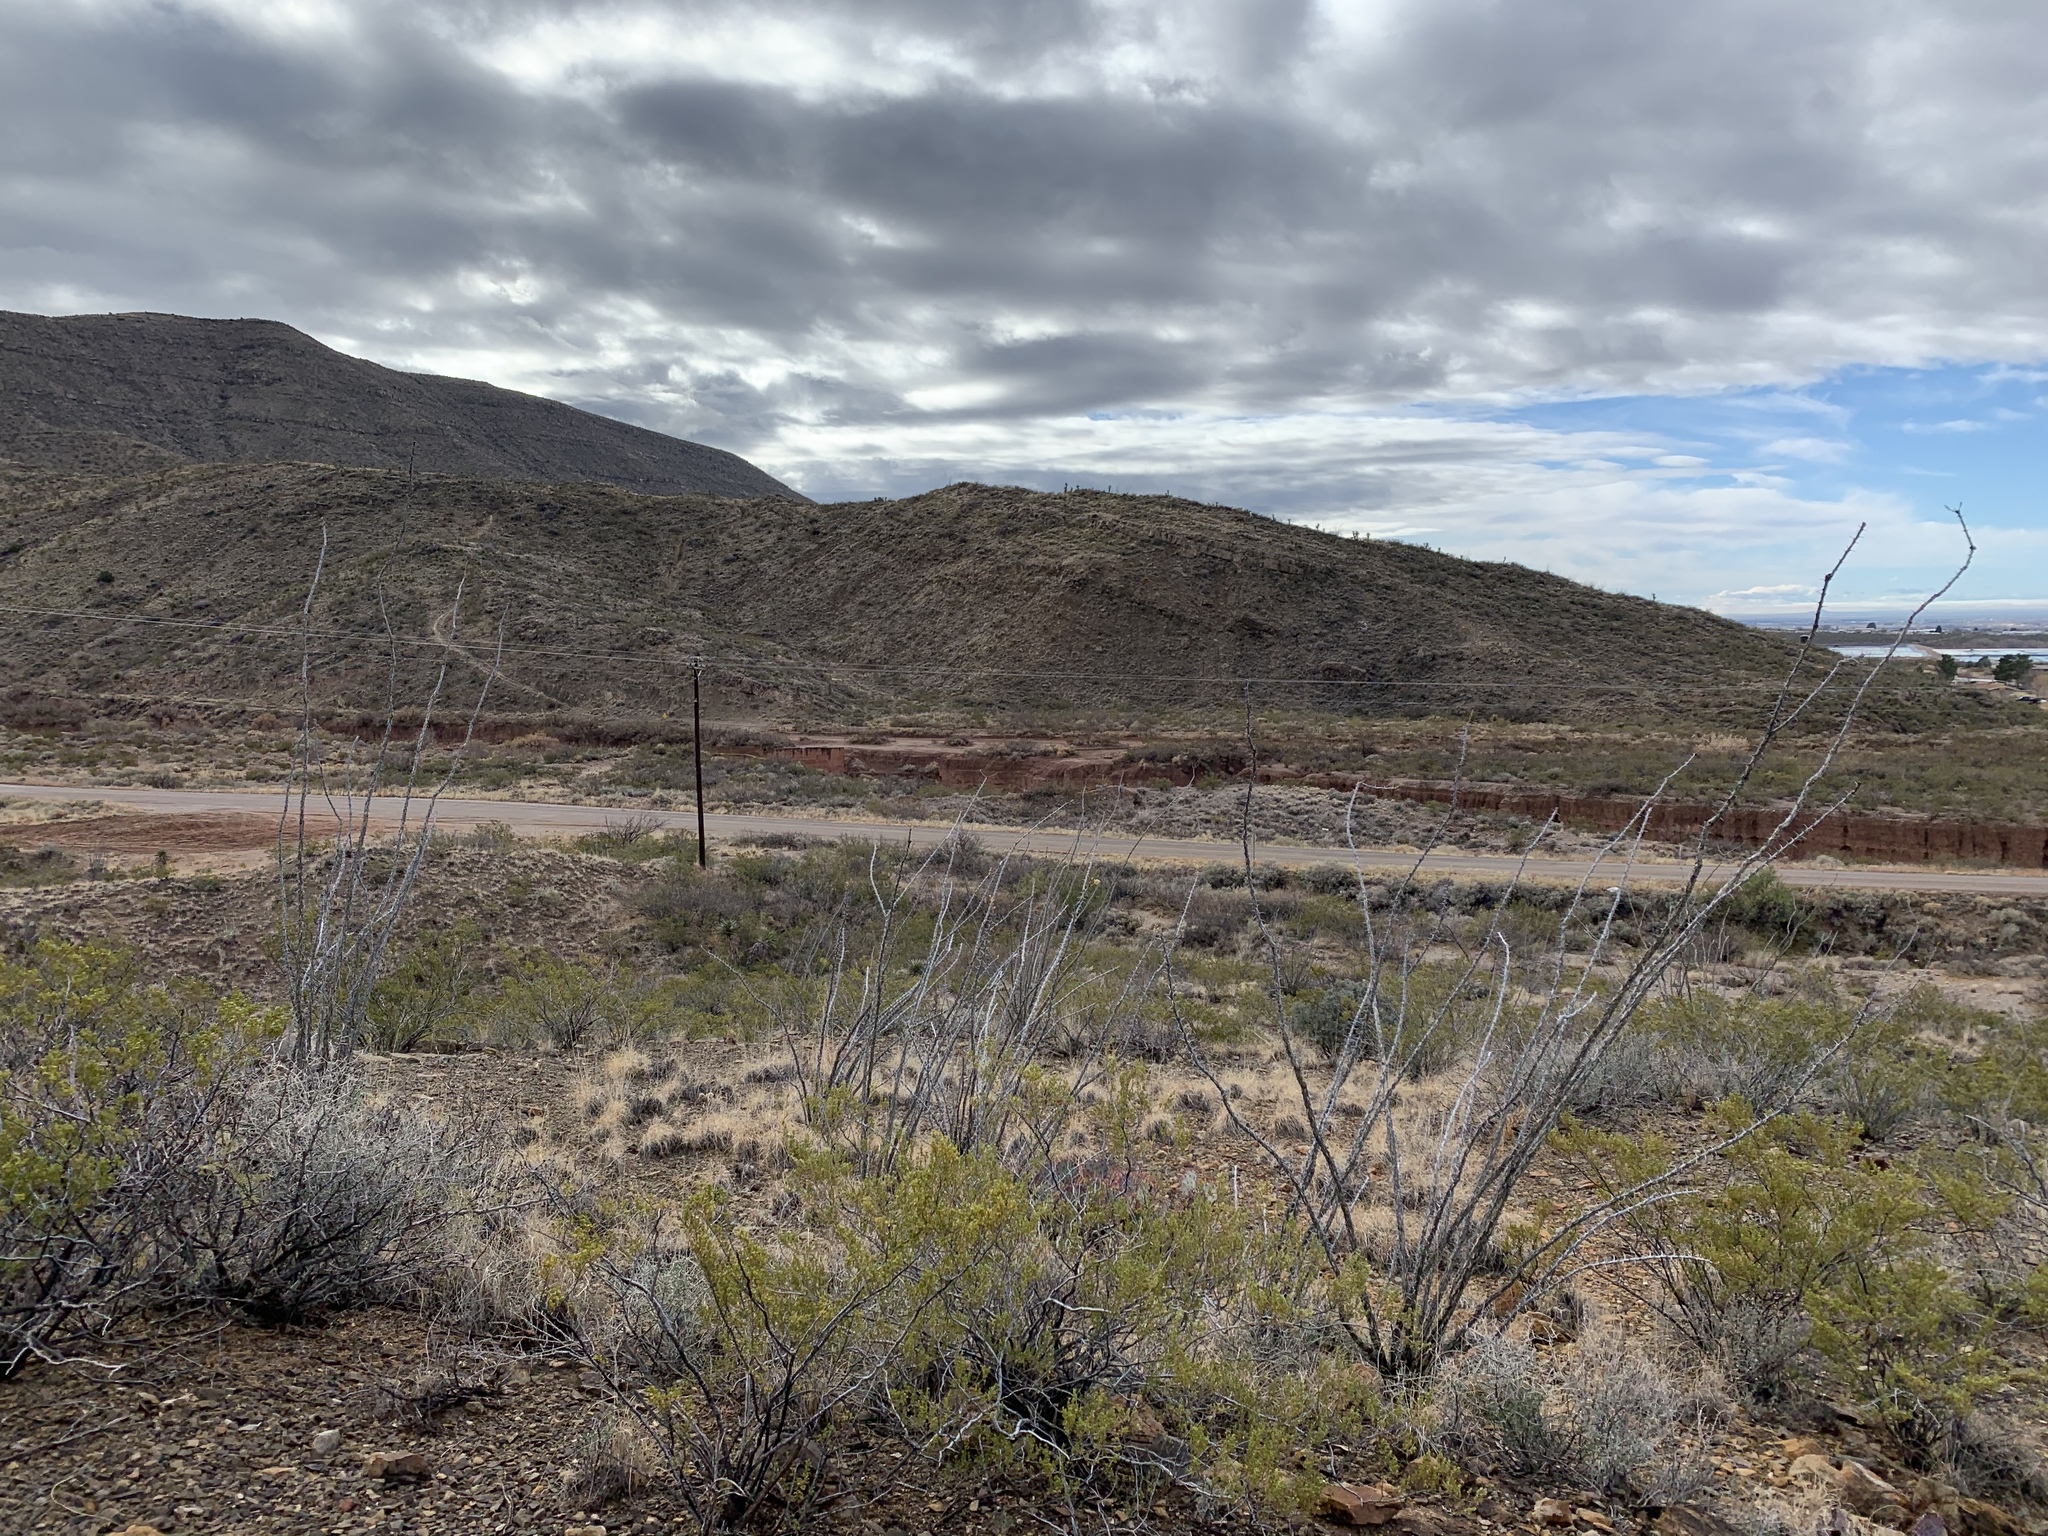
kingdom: Plantae
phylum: Tracheophyta
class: Magnoliopsida
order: Ericales
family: Fouquieriaceae
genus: Fouquieria
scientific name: Fouquieria splendens
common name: Vine-cactus
